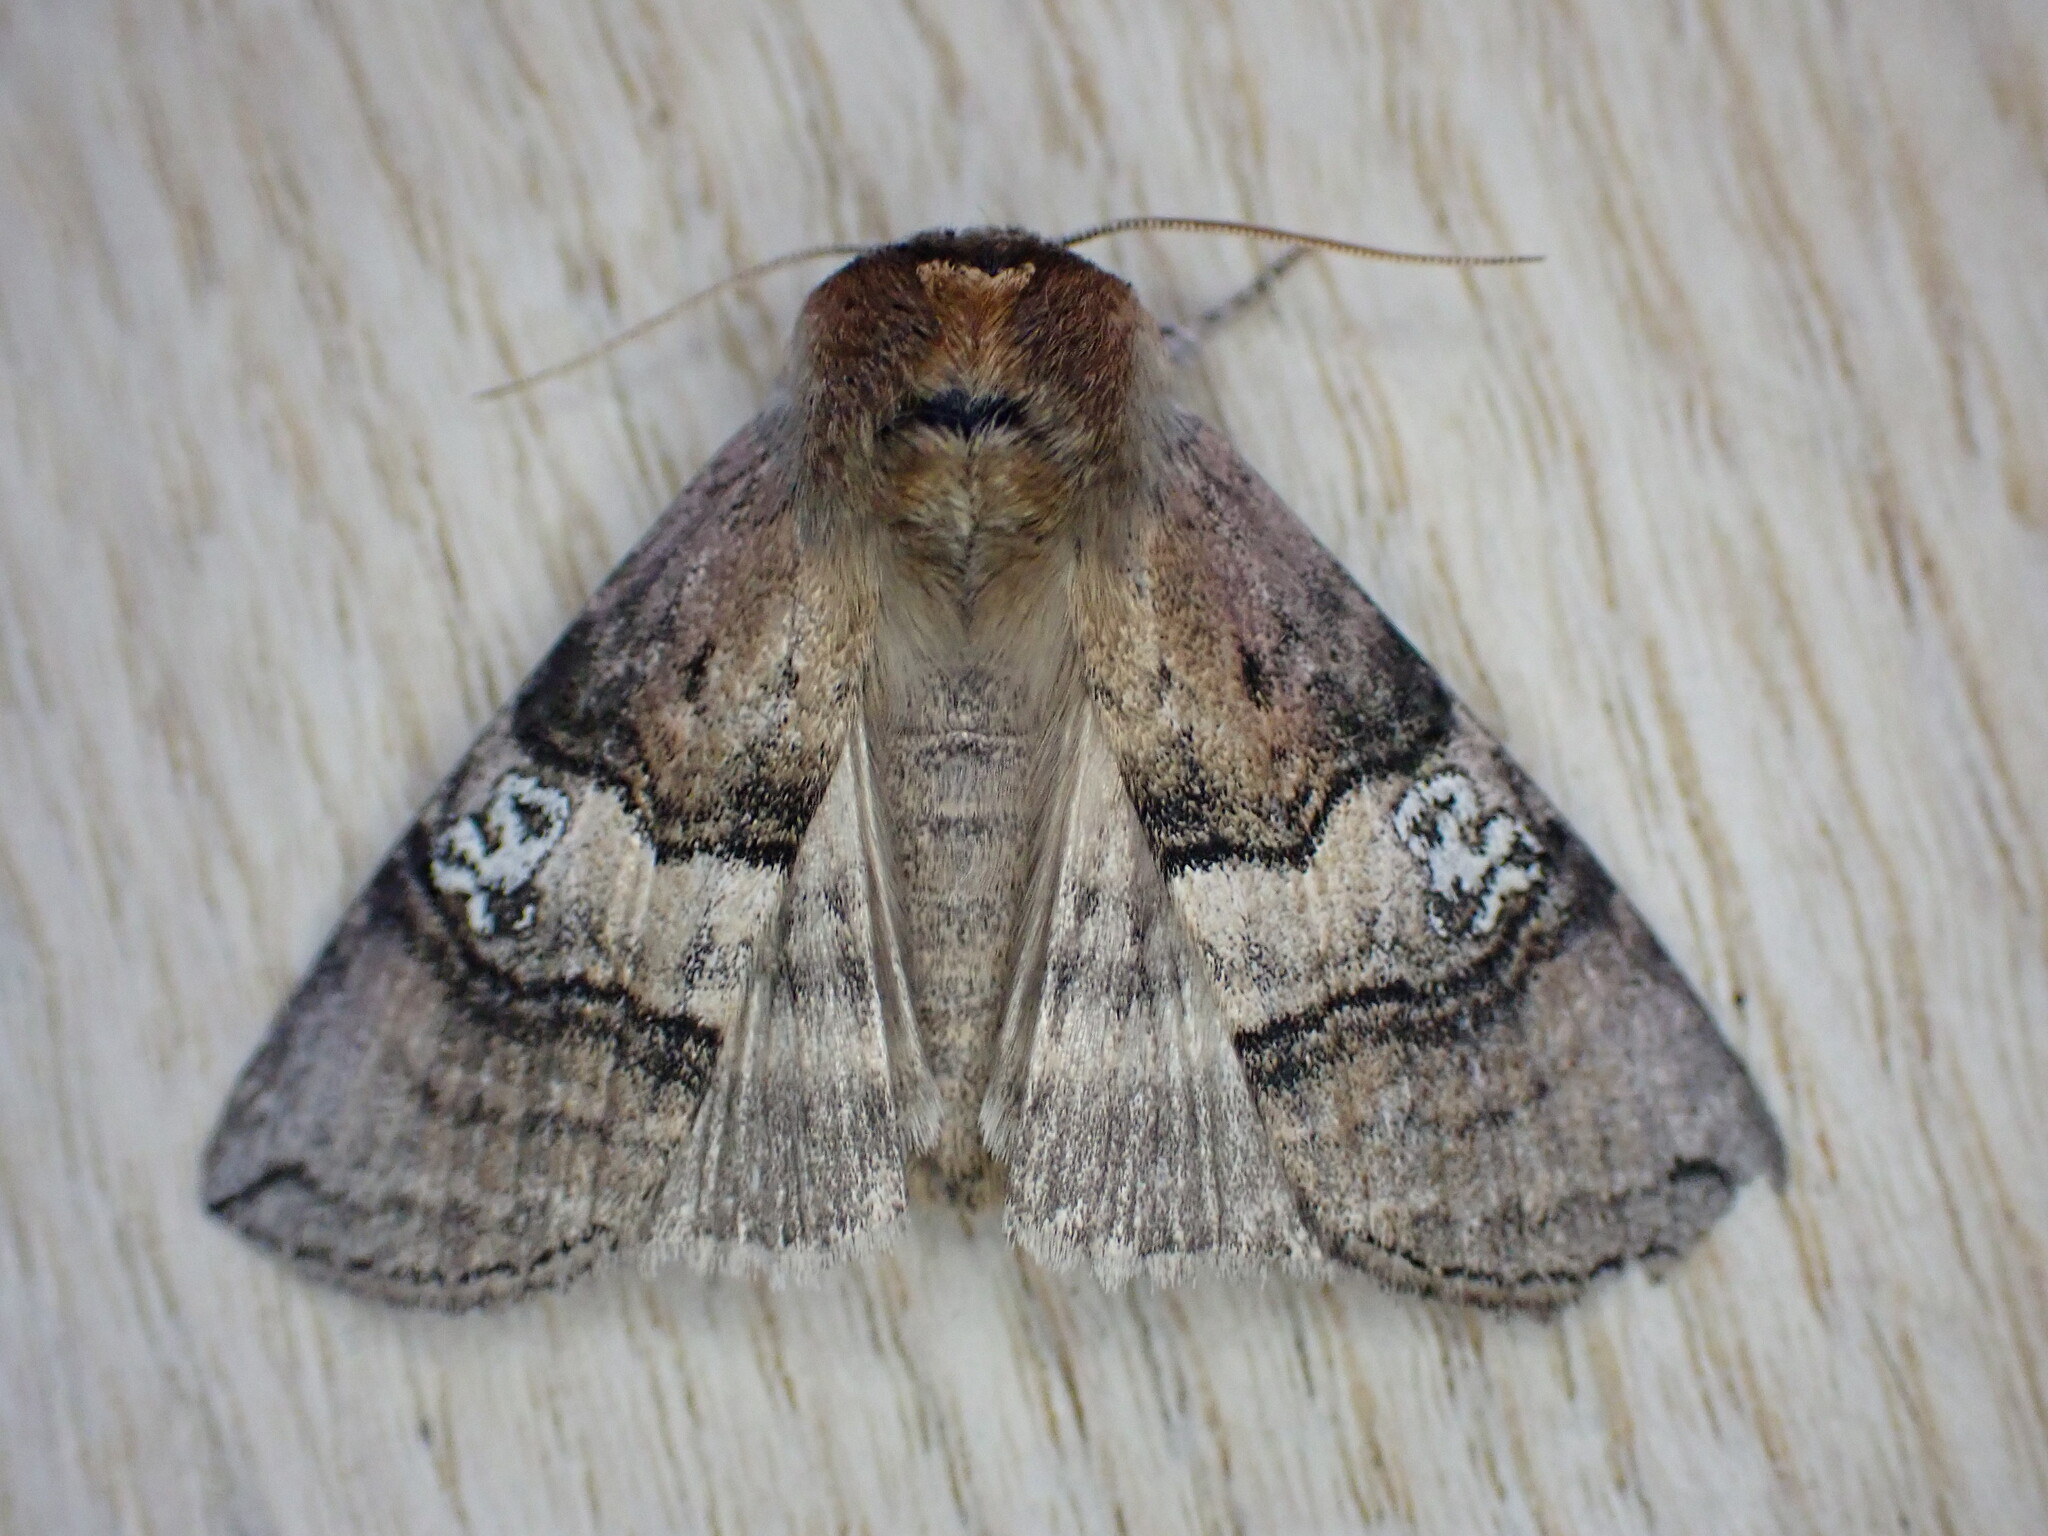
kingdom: Animalia
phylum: Arthropoda
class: Insecta
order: Lepidoptera
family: Drepanidae
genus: Tethea
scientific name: Tethea ocularis
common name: Figure of eighty
